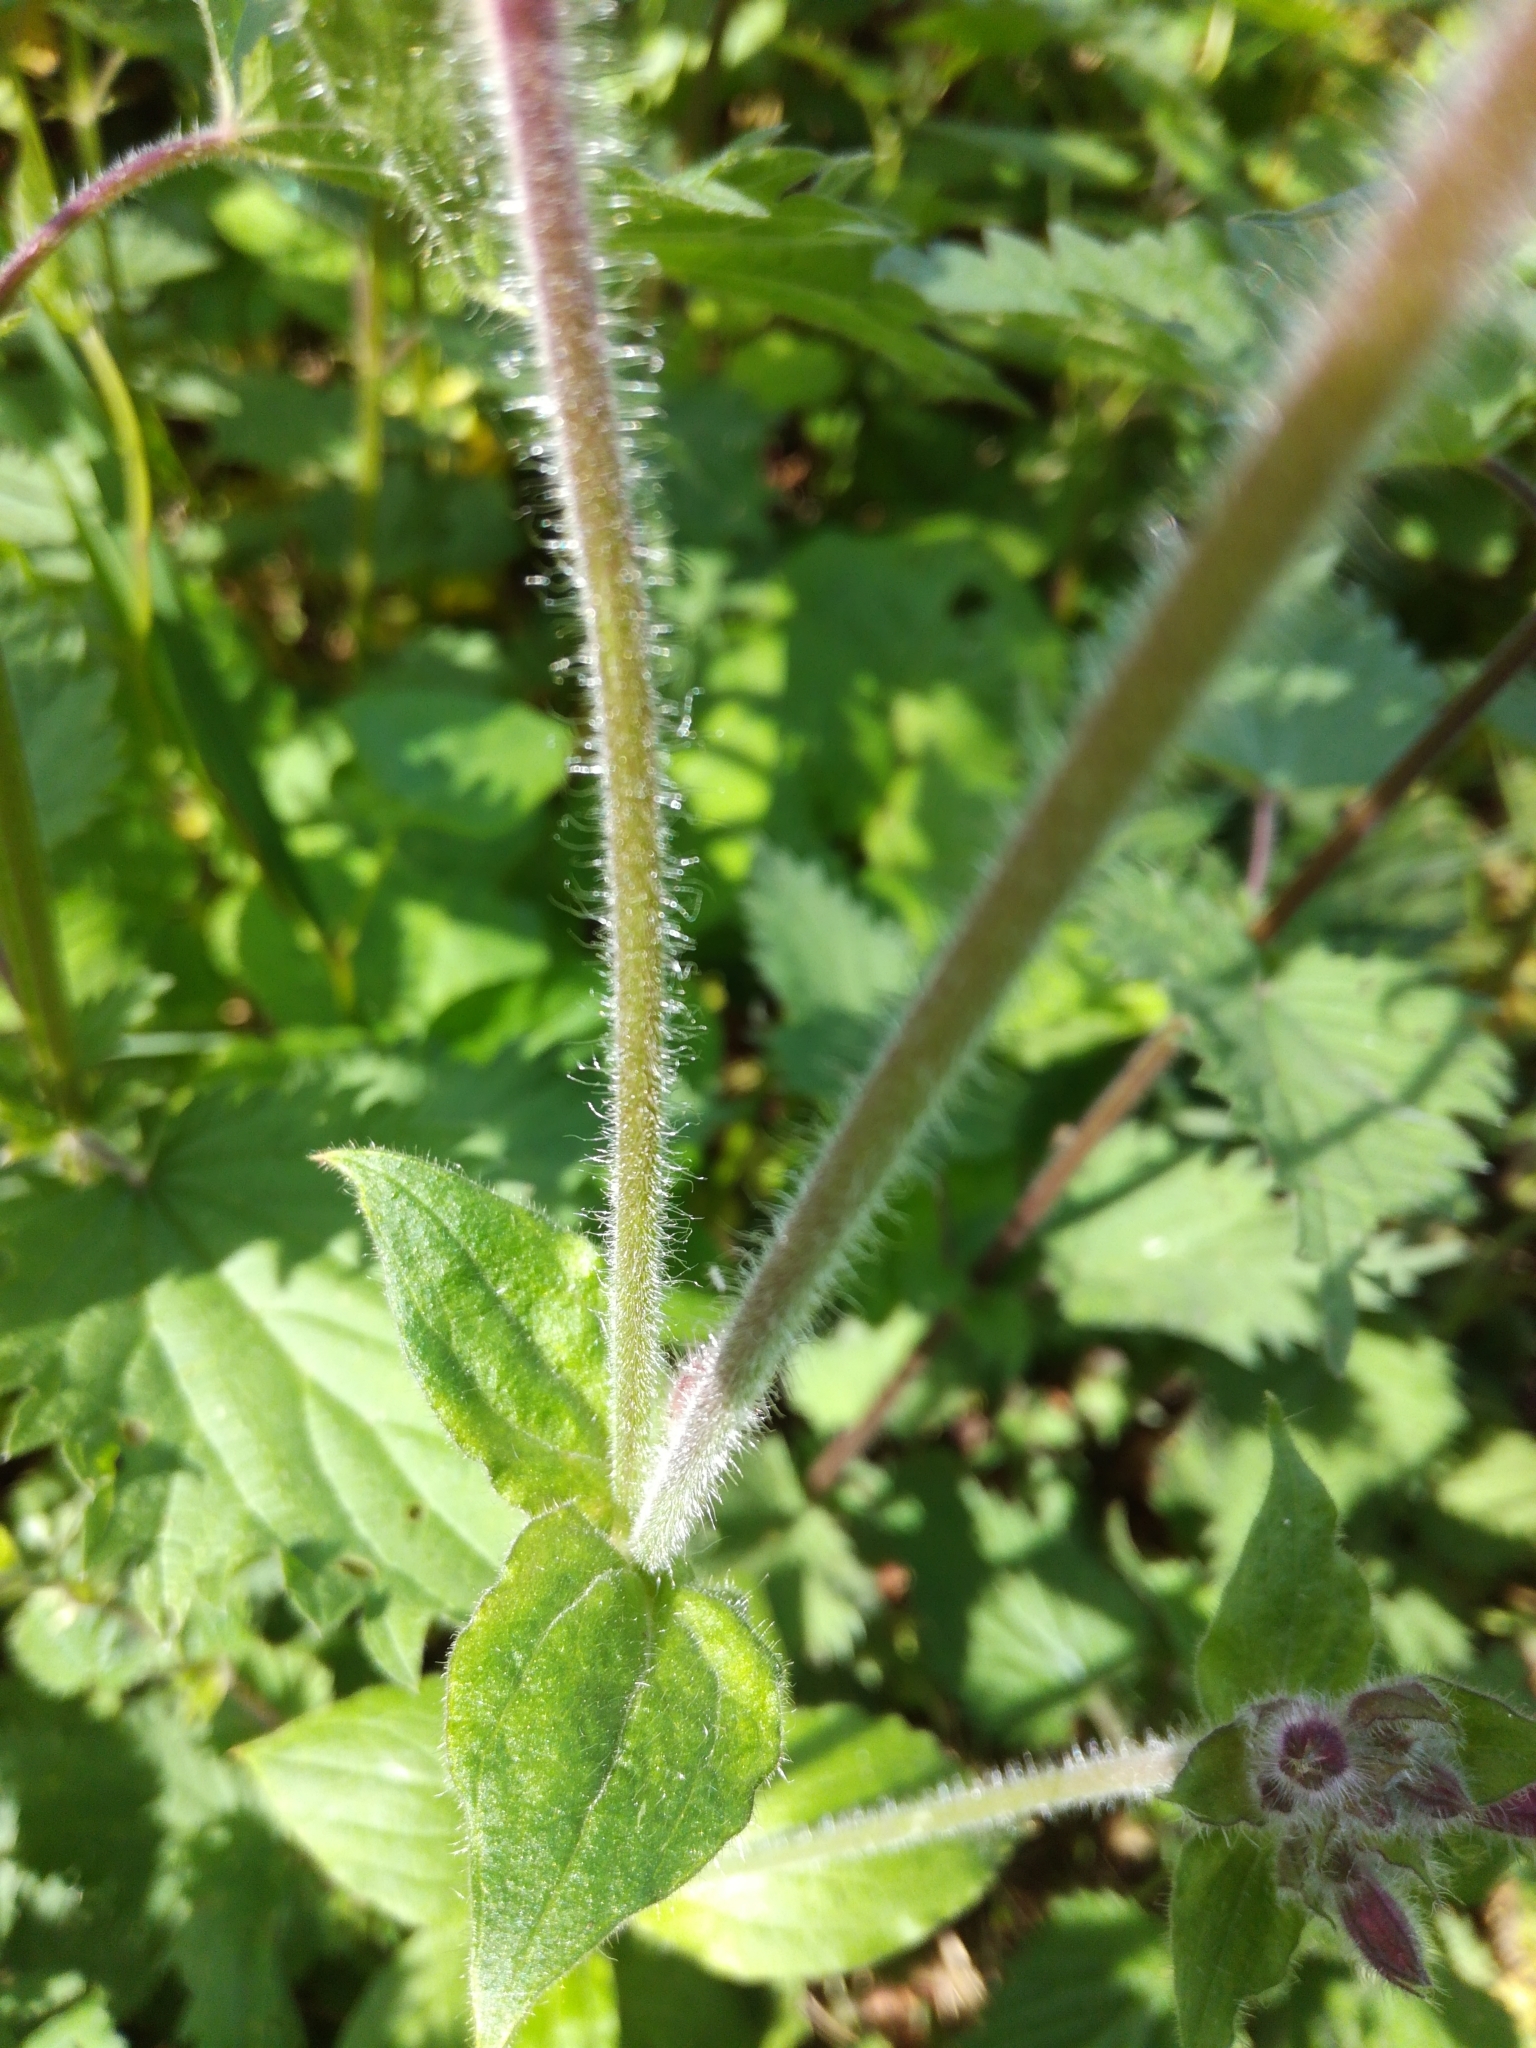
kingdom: Plantae
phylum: Tracheophyta
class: Magnoliopsida
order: Caryophyllales
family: Caryophyllaceae
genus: Silene
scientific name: Silene dioica
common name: Red campion
